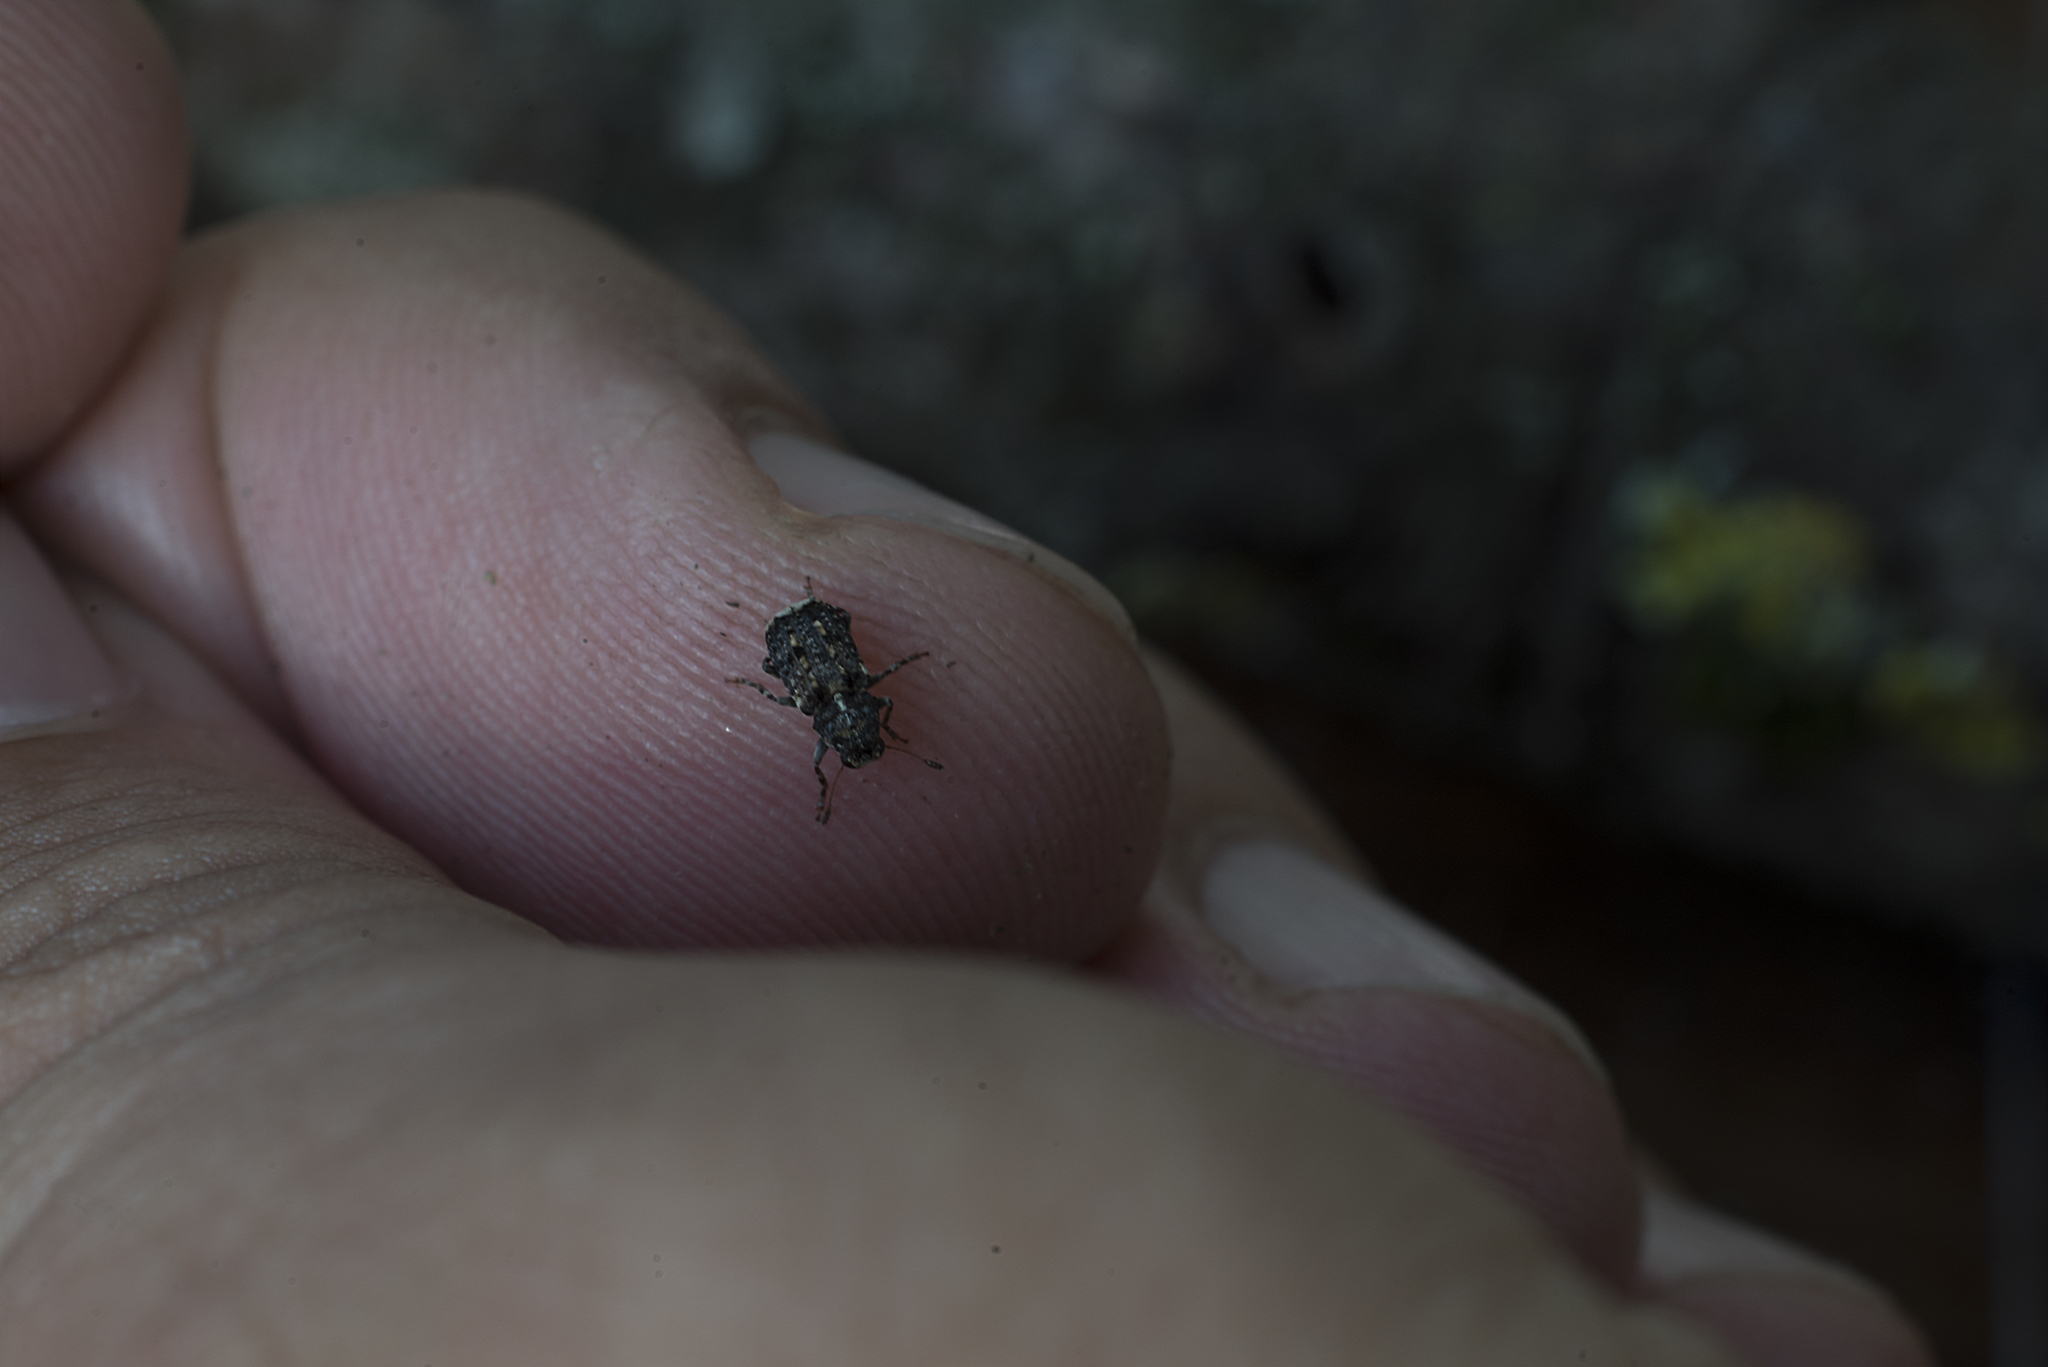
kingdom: Animalia
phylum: Arthropoda
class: Insecta
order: Coleoptera
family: Anthribidae
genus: Dissoleucas
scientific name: Dissoleucas niveirostris
